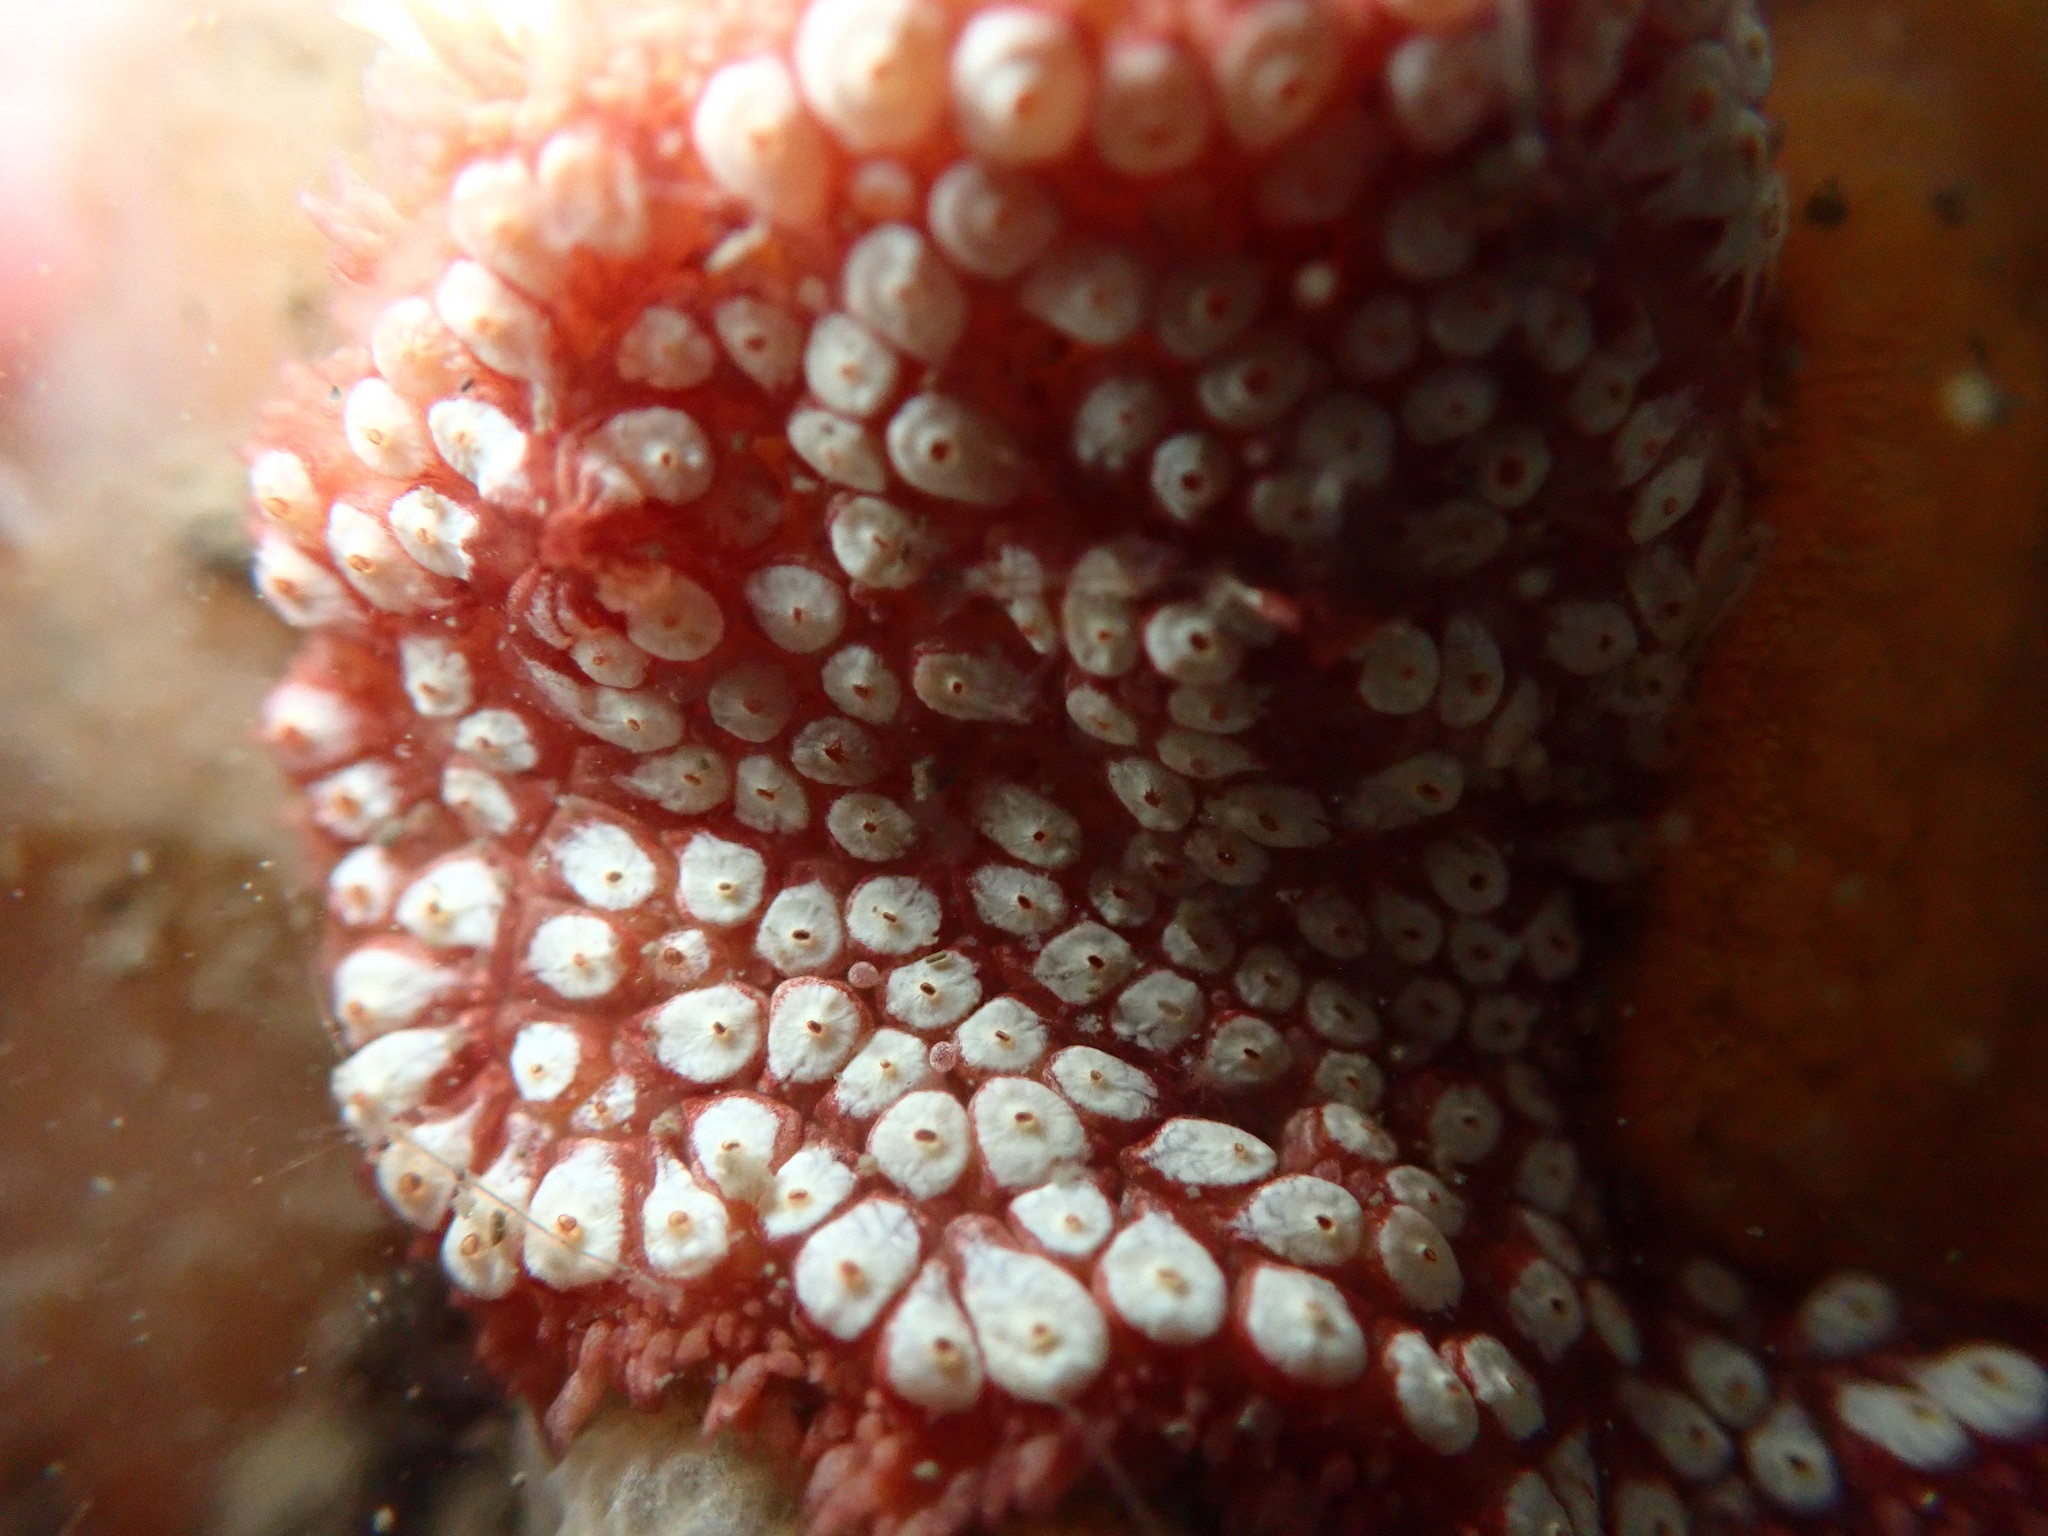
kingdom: Animalia
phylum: Chordata
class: Ascidiacea
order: Stolidobranchia
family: Styelidae
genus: Botrylloides
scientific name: Botrylloides diegensis
